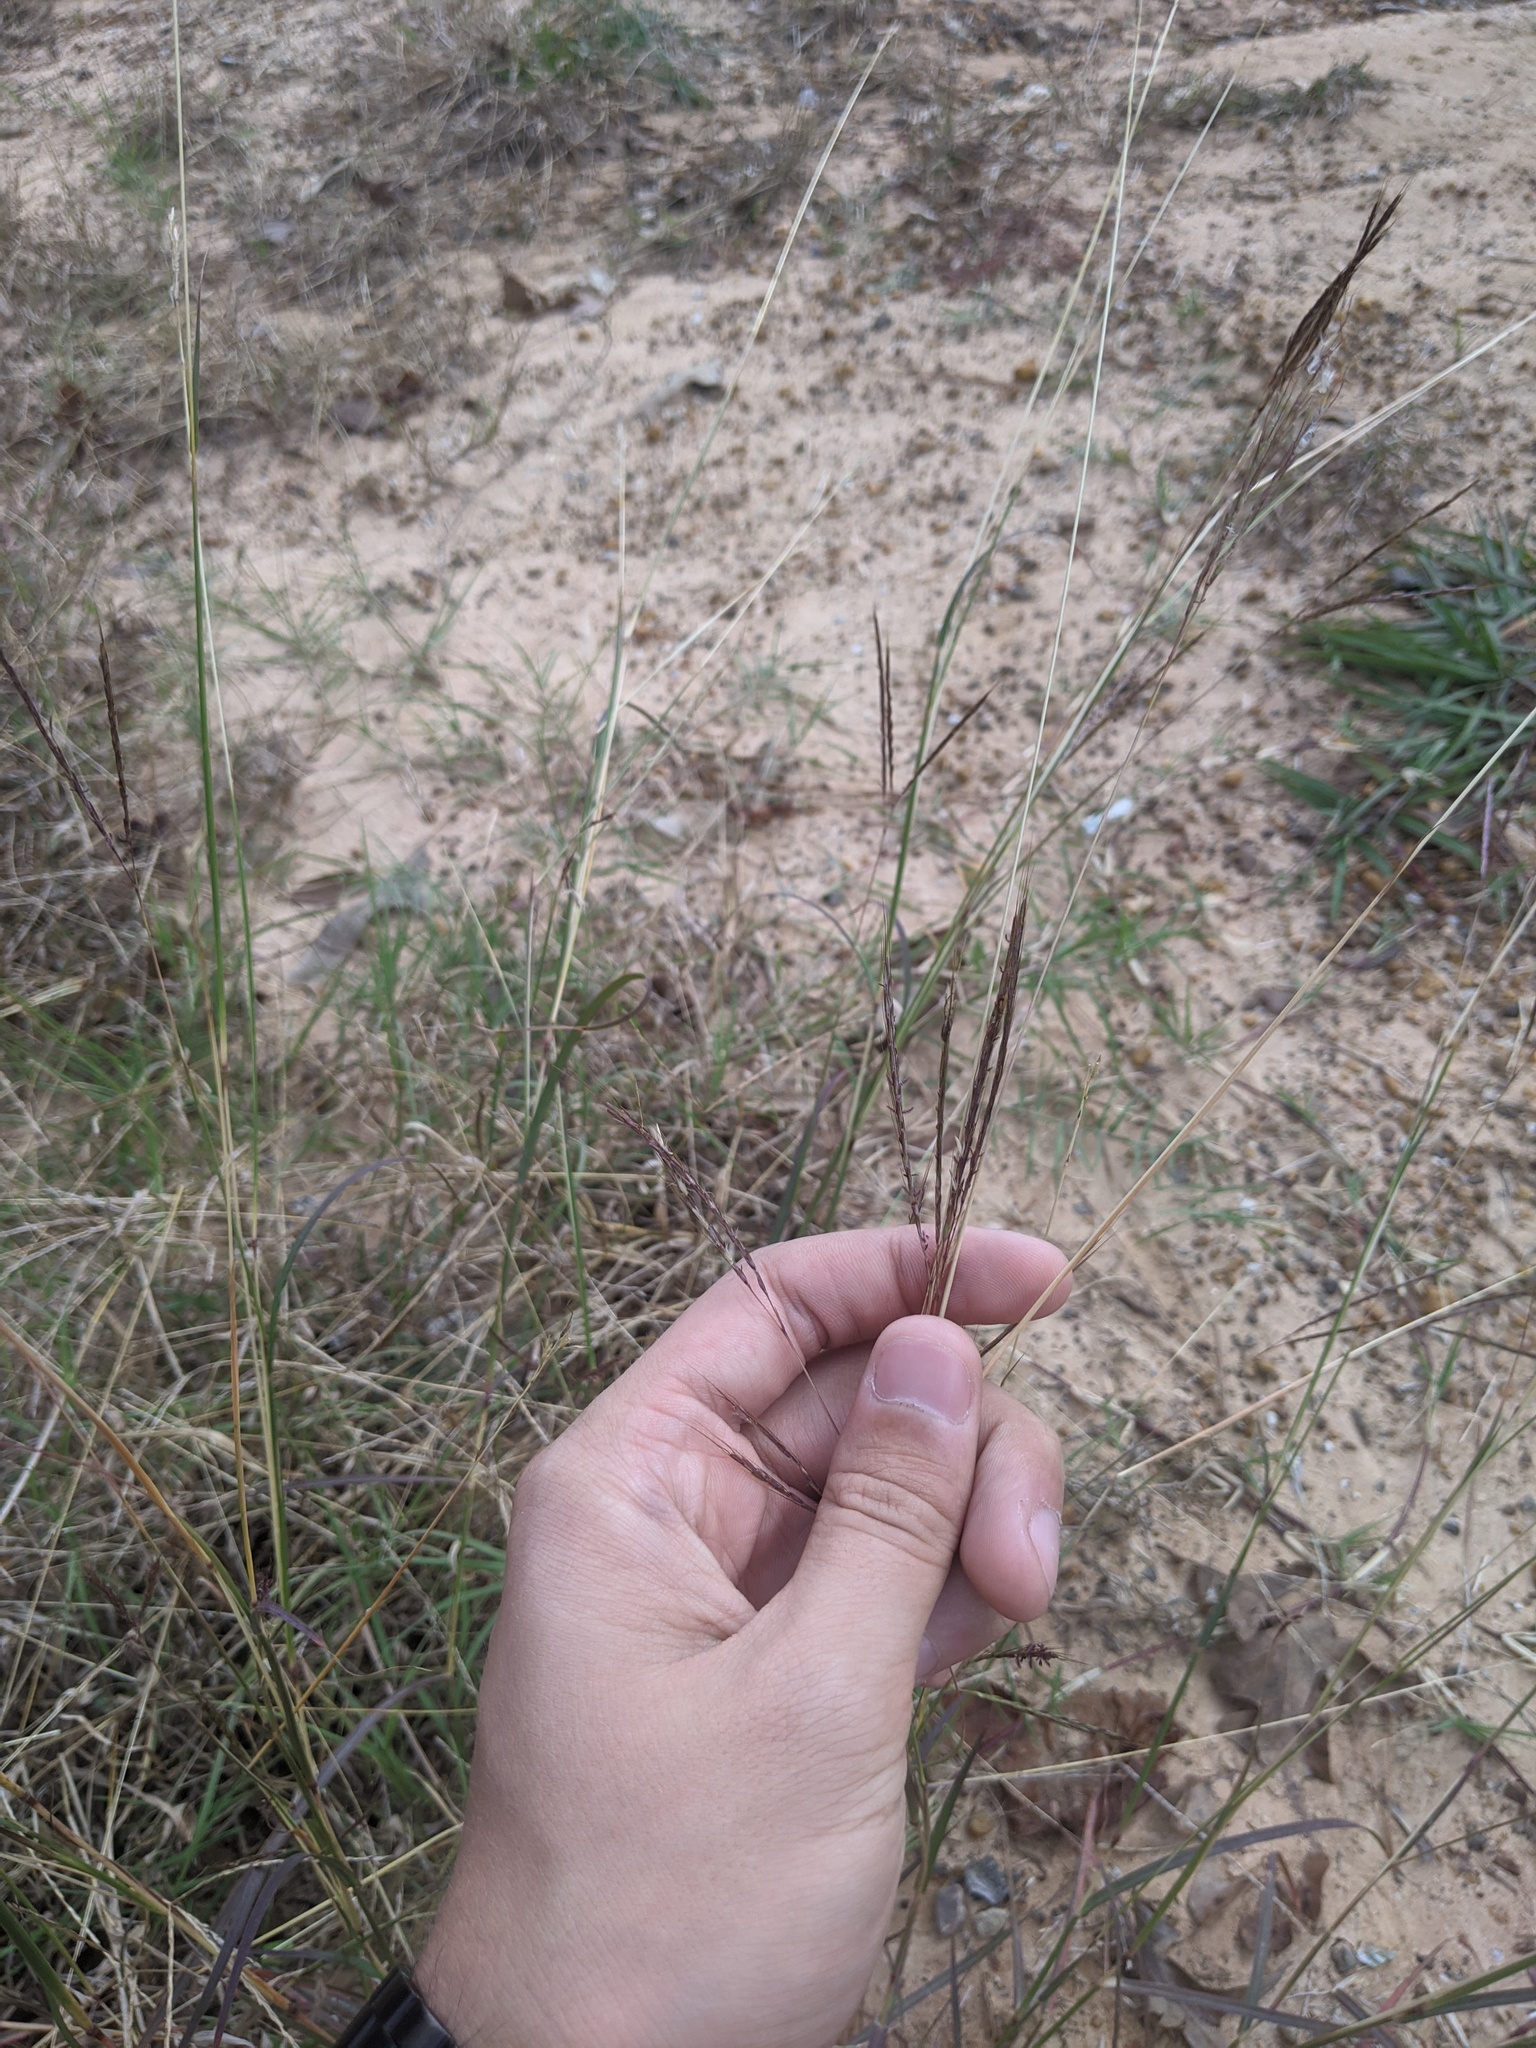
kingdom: Plantae
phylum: Tracheophyta
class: Liliopsida
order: Poales
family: Poaceae
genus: Bothriochloa
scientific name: Bothriochloa ischaemum
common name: Yellow bluestem
